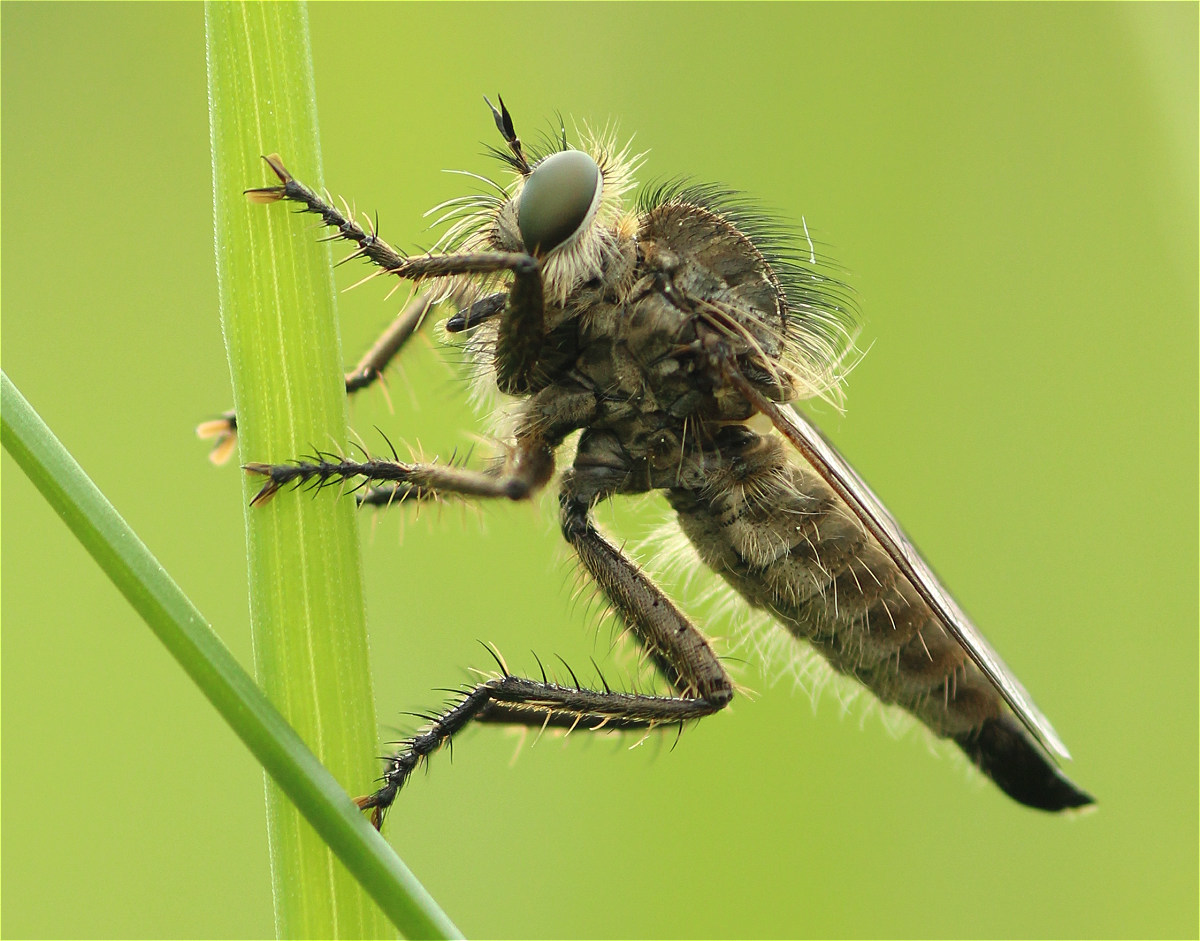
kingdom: Animalia
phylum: Arthropoda
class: Insecta
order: Diptera
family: Asilidae
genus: Dysmachus
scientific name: Dysmachus trigonus
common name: Fan-bristled robberfly
